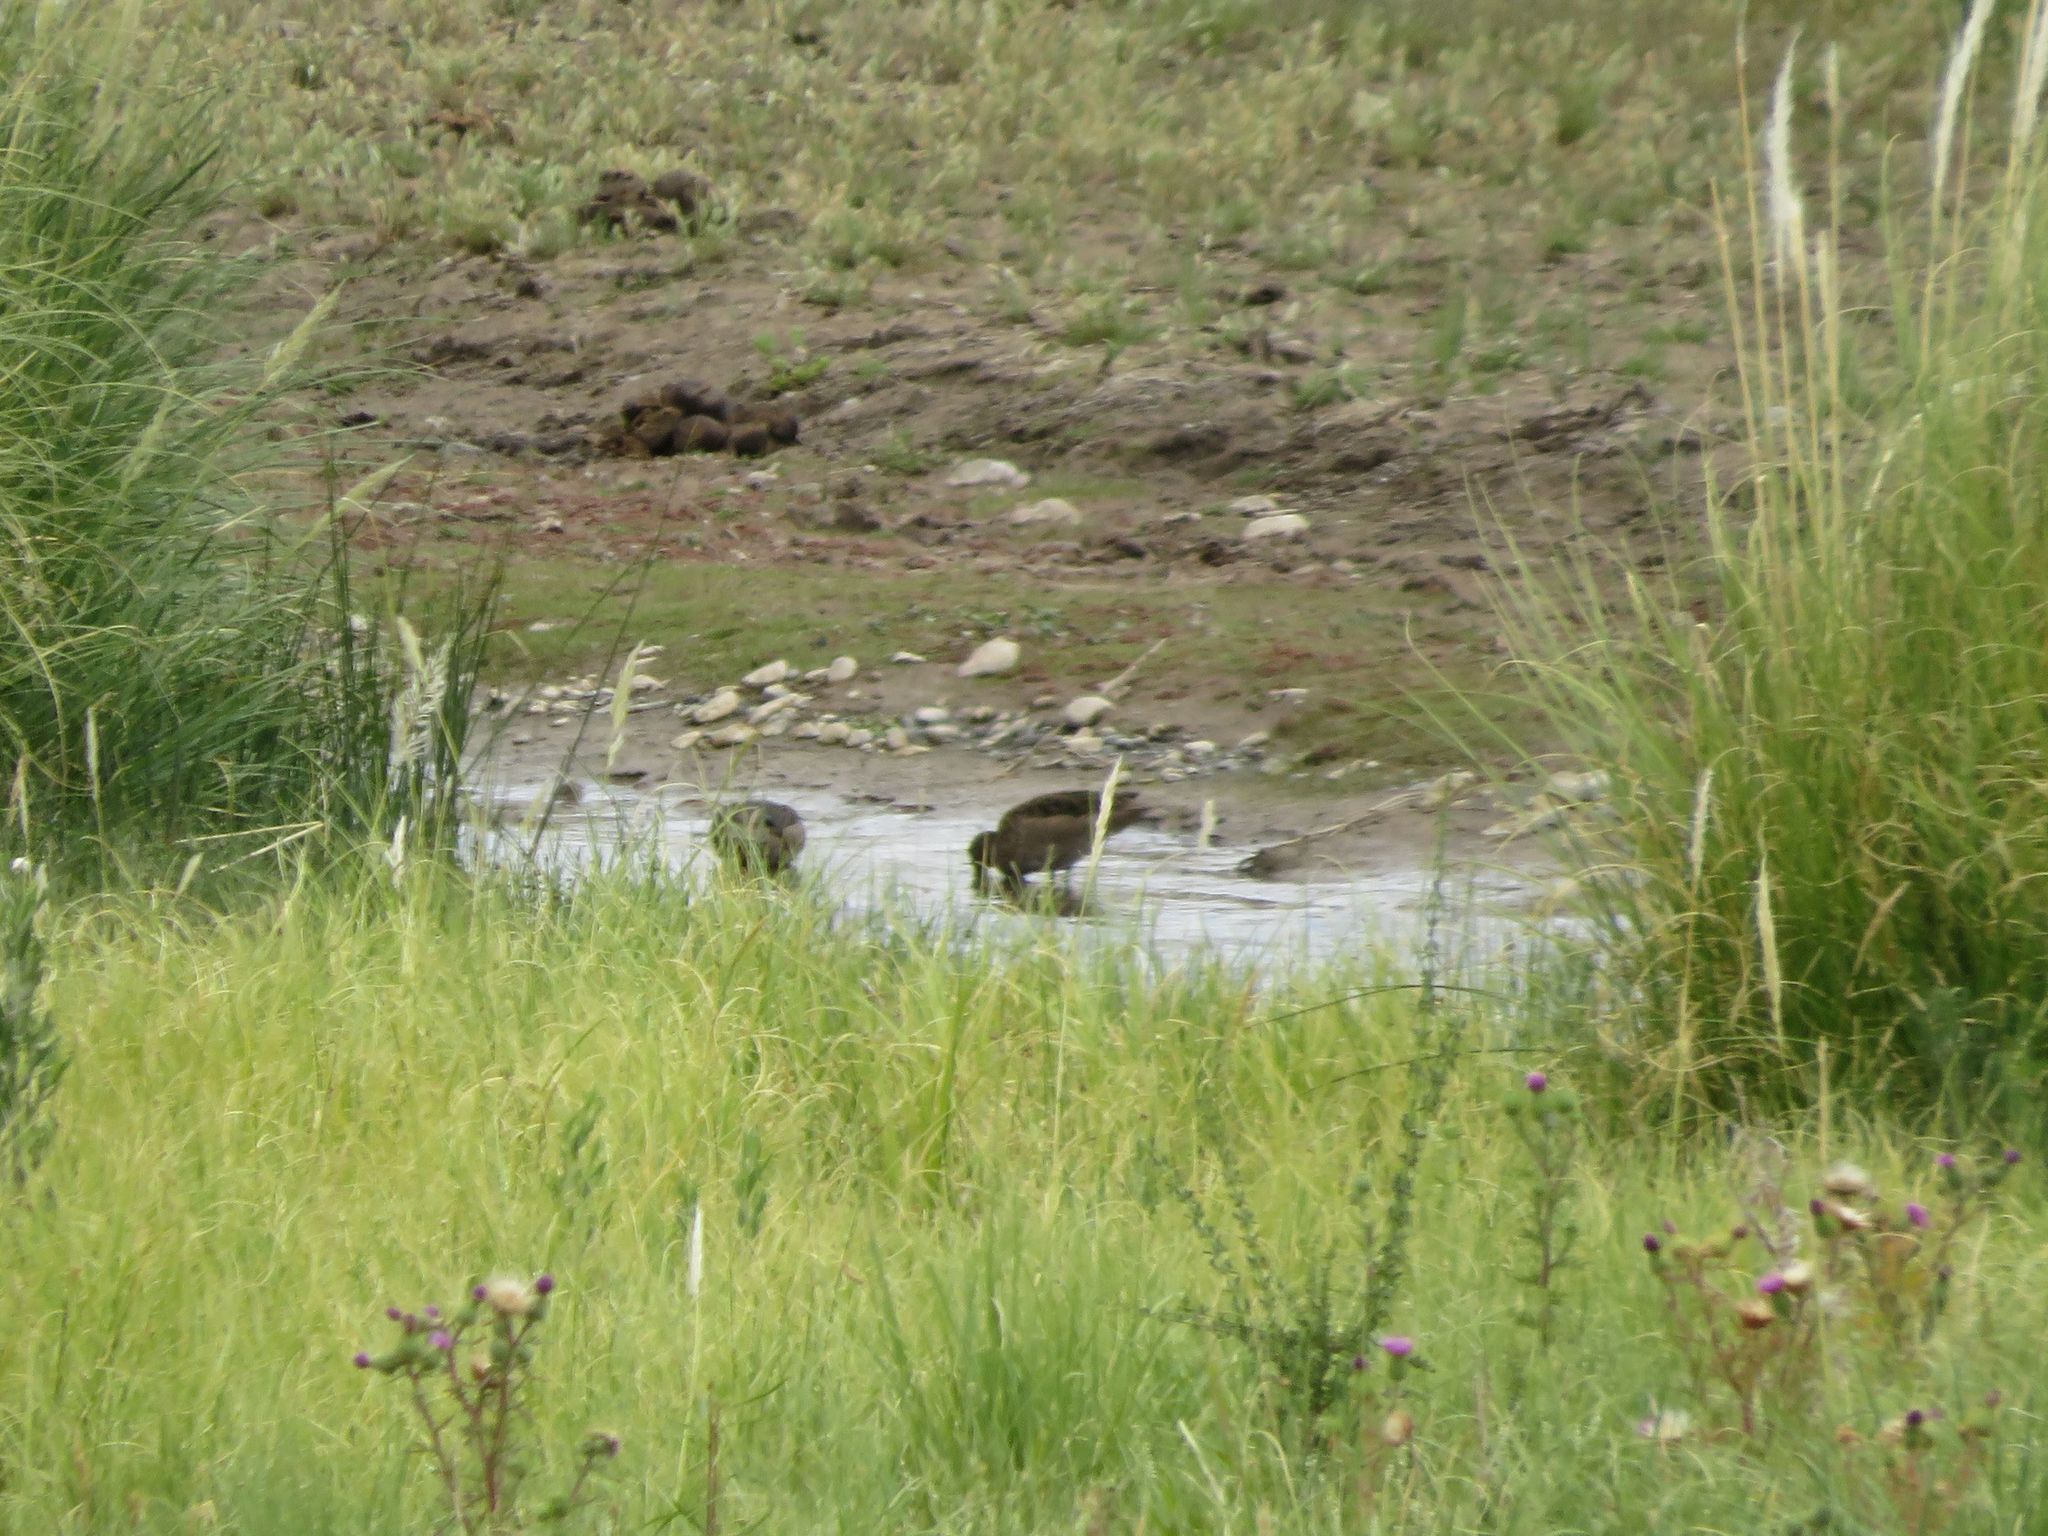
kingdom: Animalia
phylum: Chordata
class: Aves
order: Anseriformes
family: Anatidae
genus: Anas
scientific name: Anas flavirostris
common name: Yellow-billed teal
